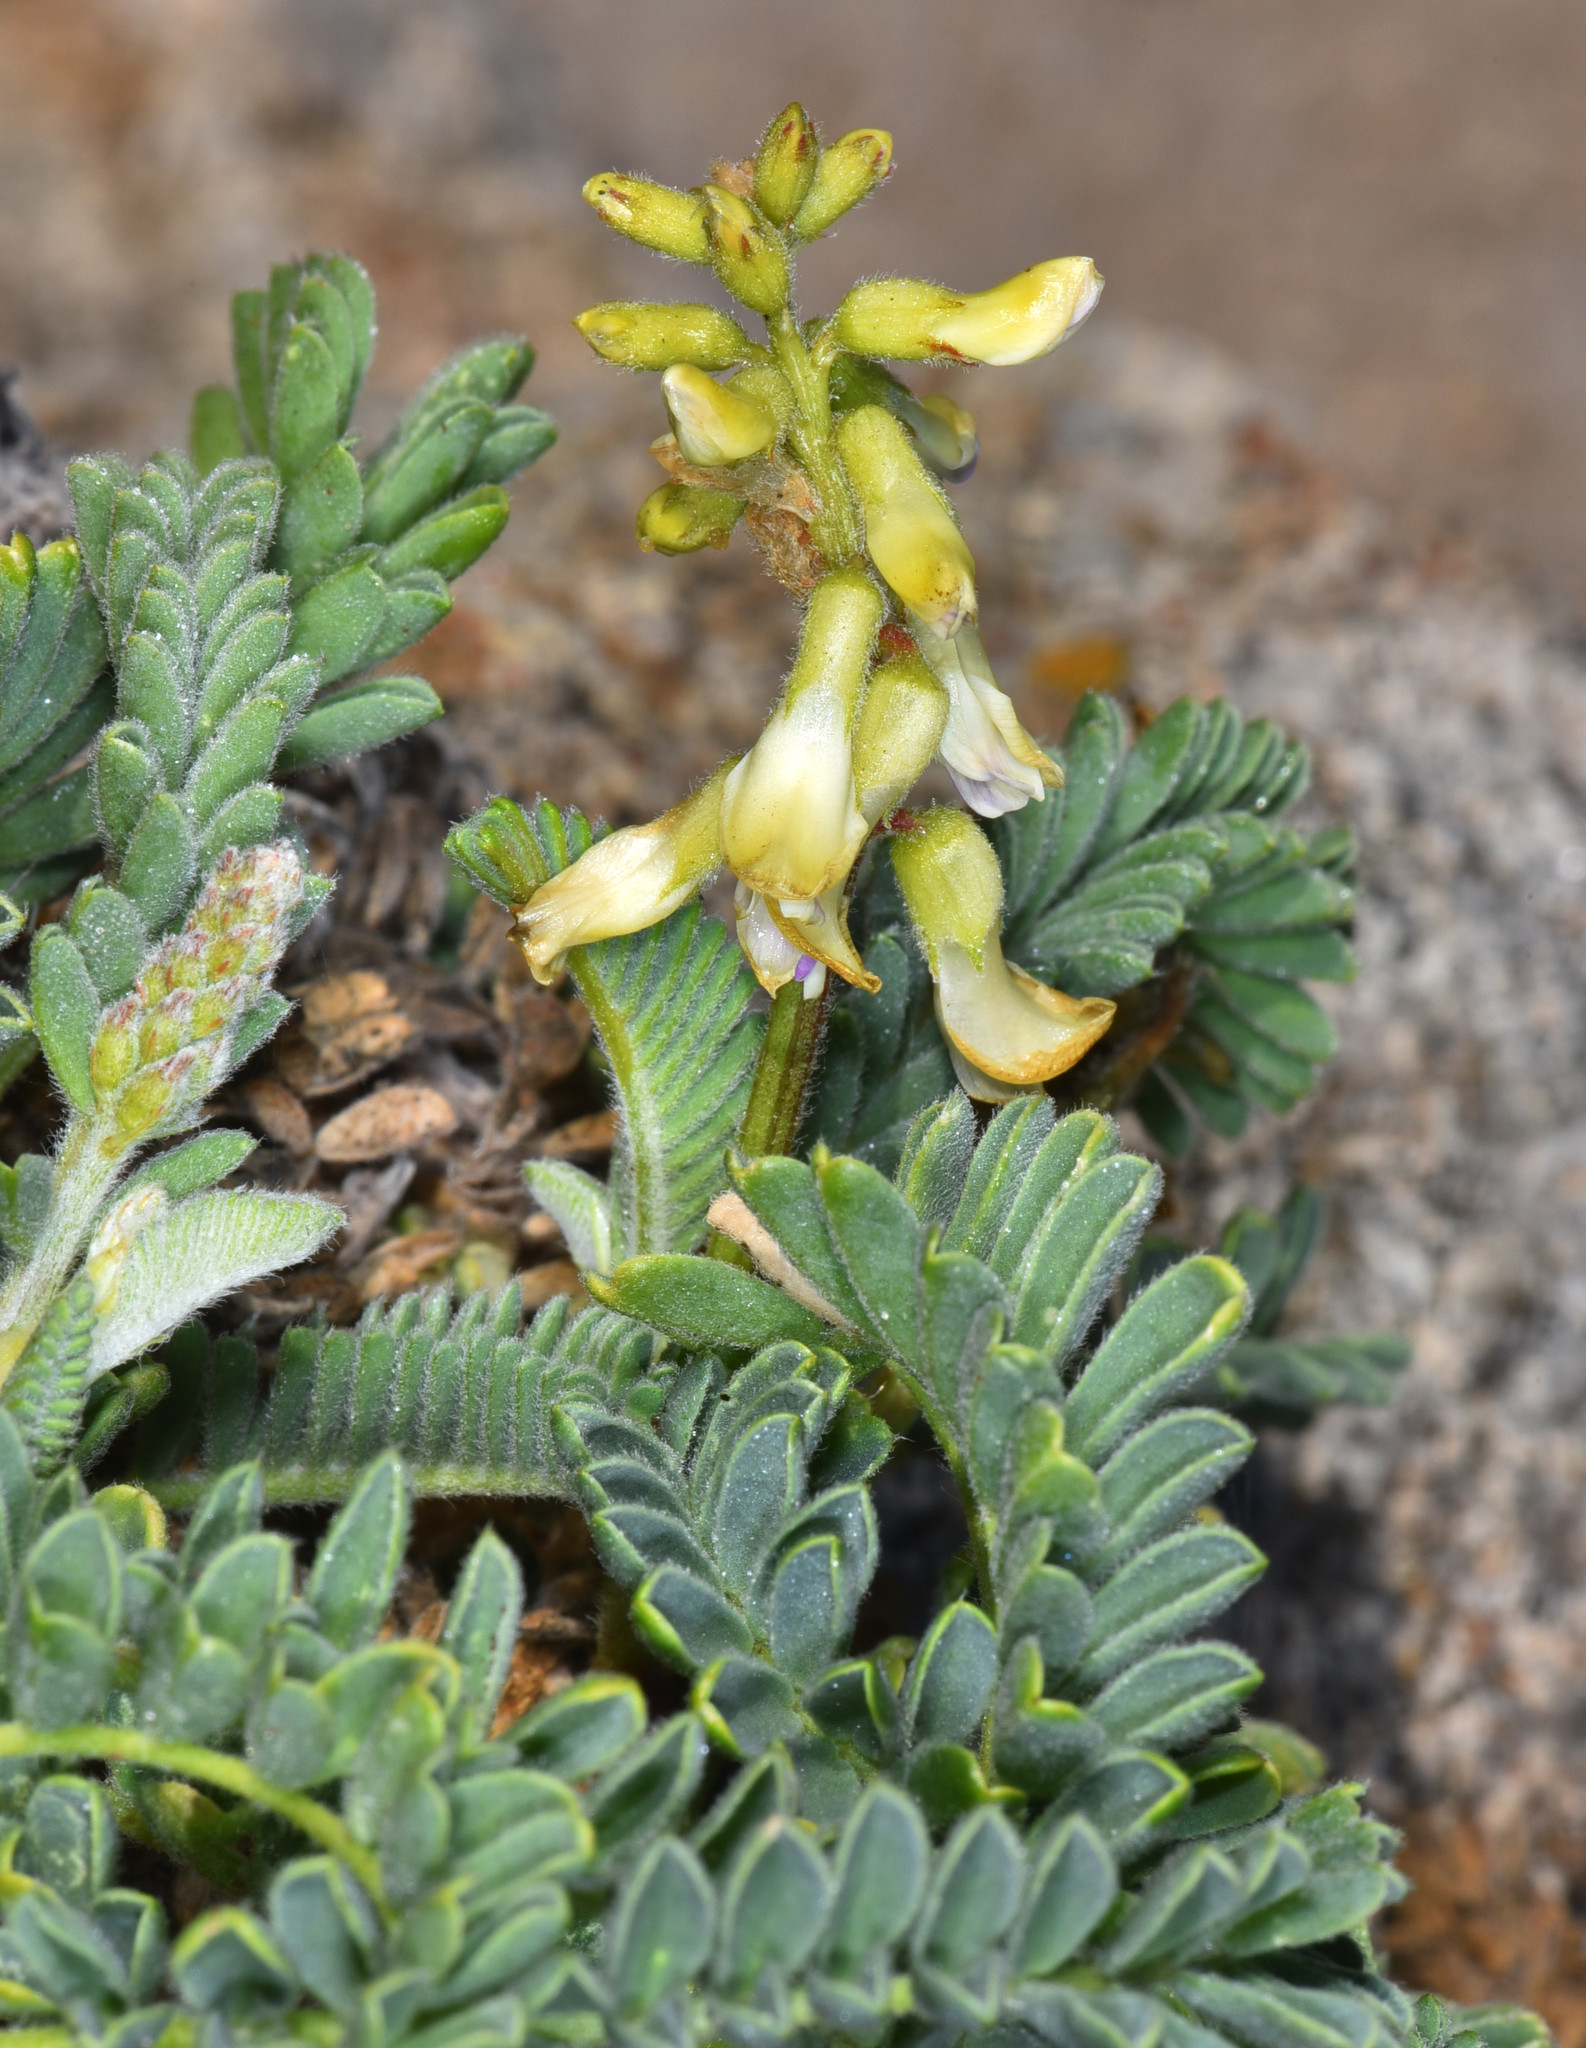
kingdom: Plantae
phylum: Tracheophyta
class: Magnoliopsida
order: Fabales
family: Fabaceae
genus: Astragalus
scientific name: Astragalus nuttallii
